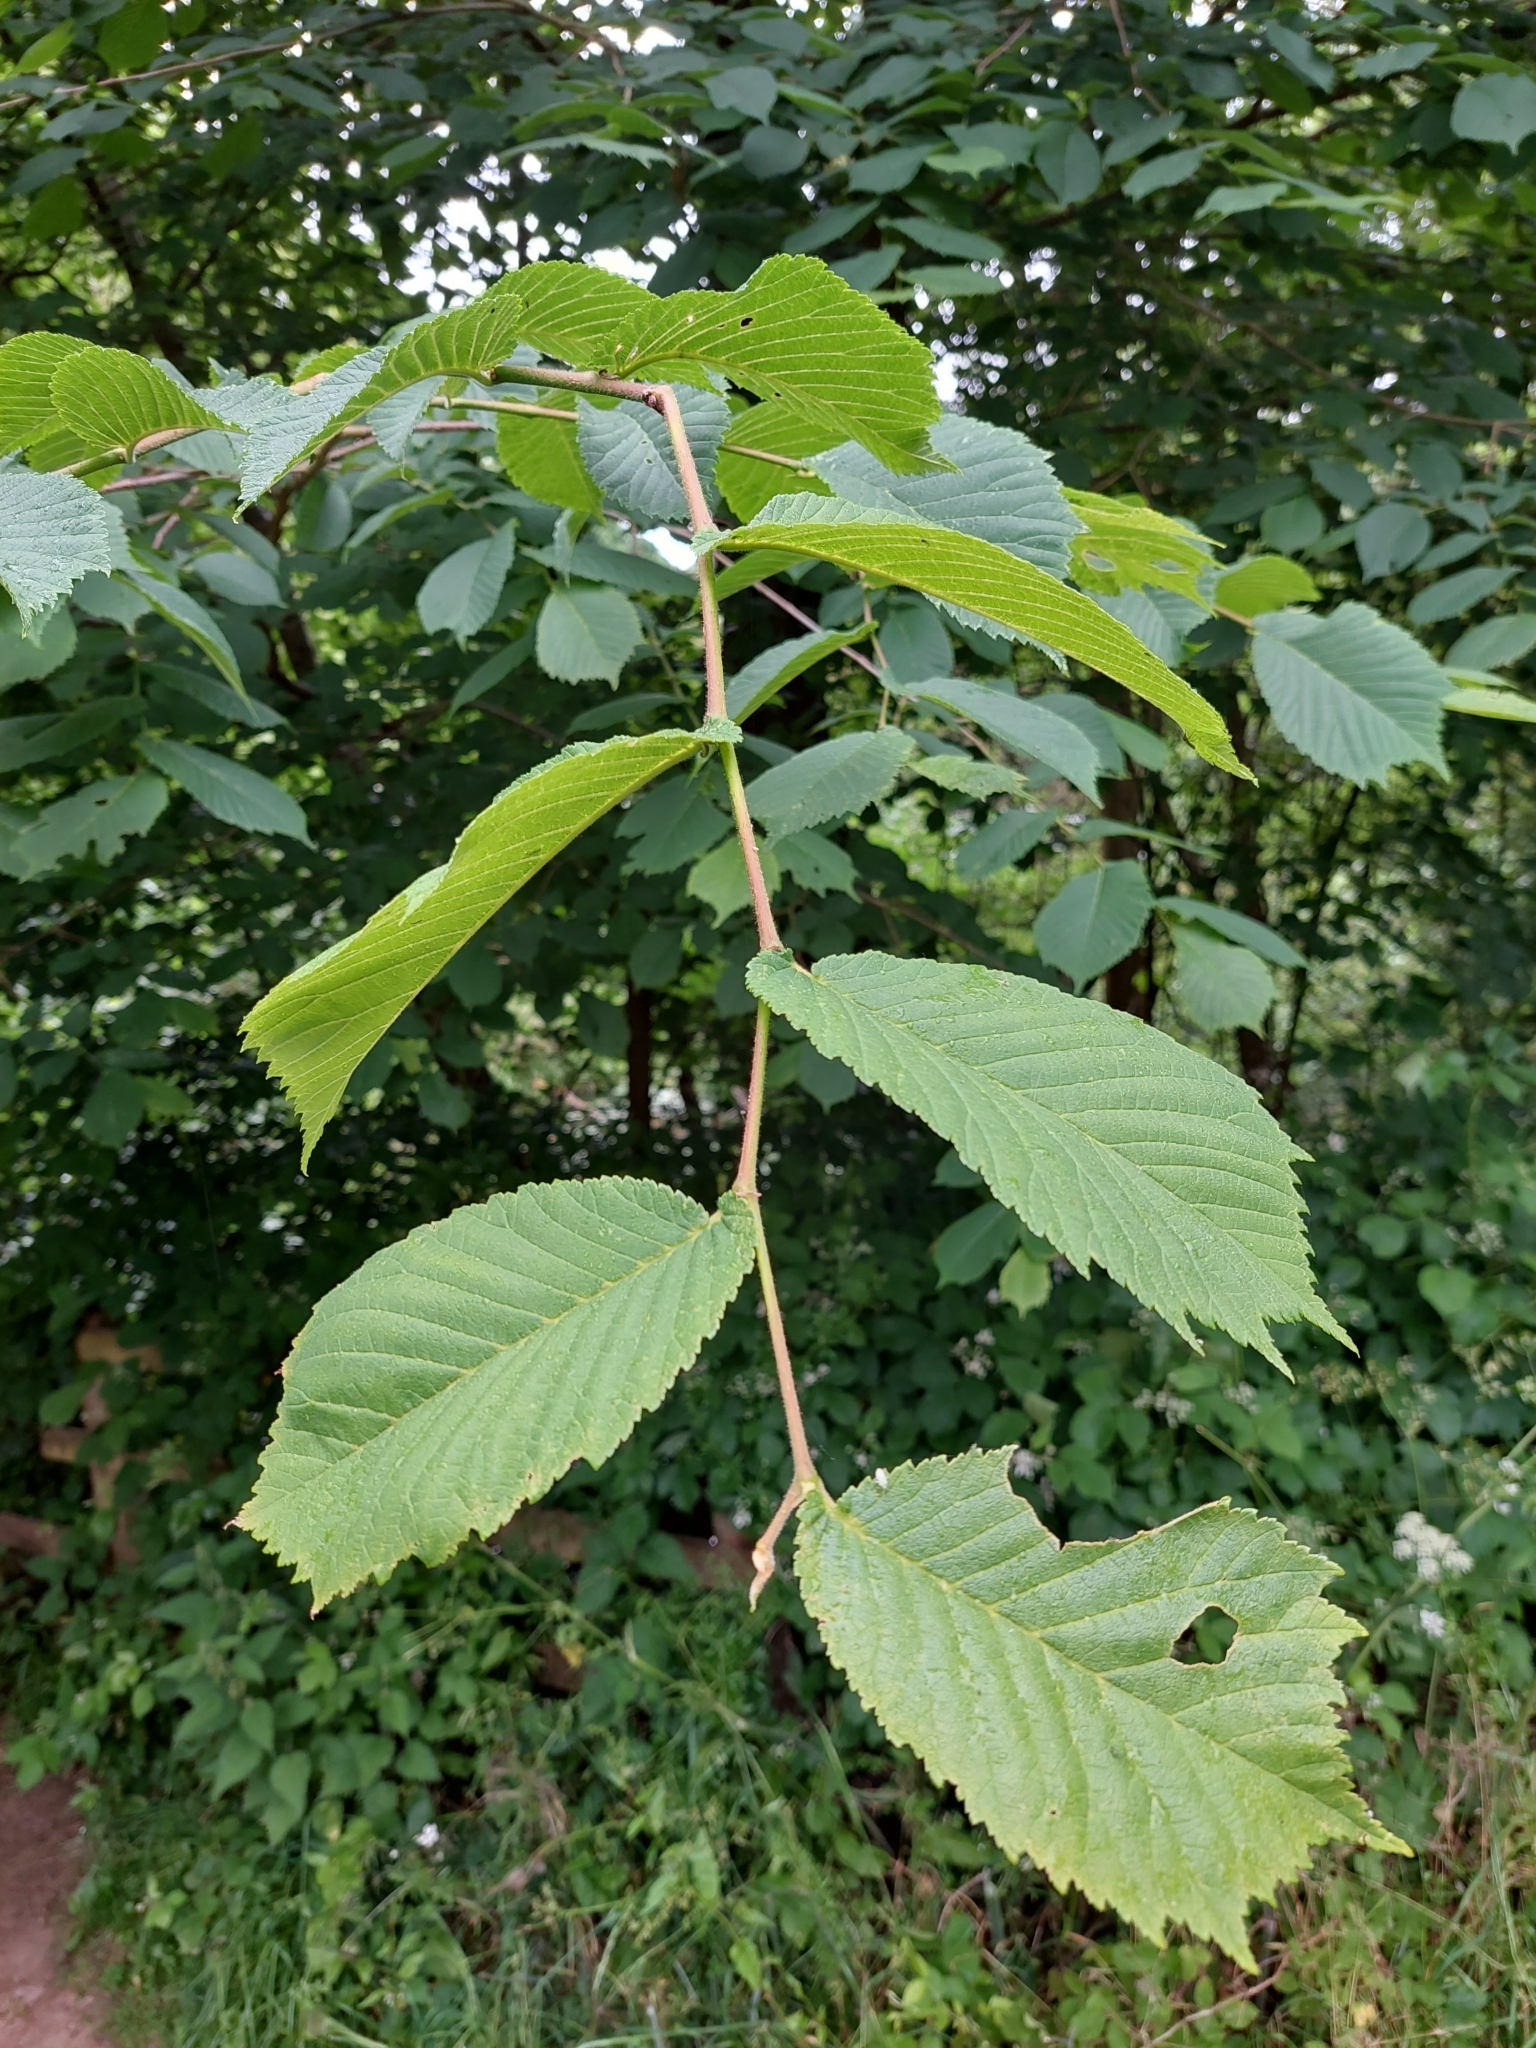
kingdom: Plantae
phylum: Tracheophyta
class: Magnoliopsida
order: Rosales
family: Ulmaceae
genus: Ulmus
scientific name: Ulmus glabra
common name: Wych elm
